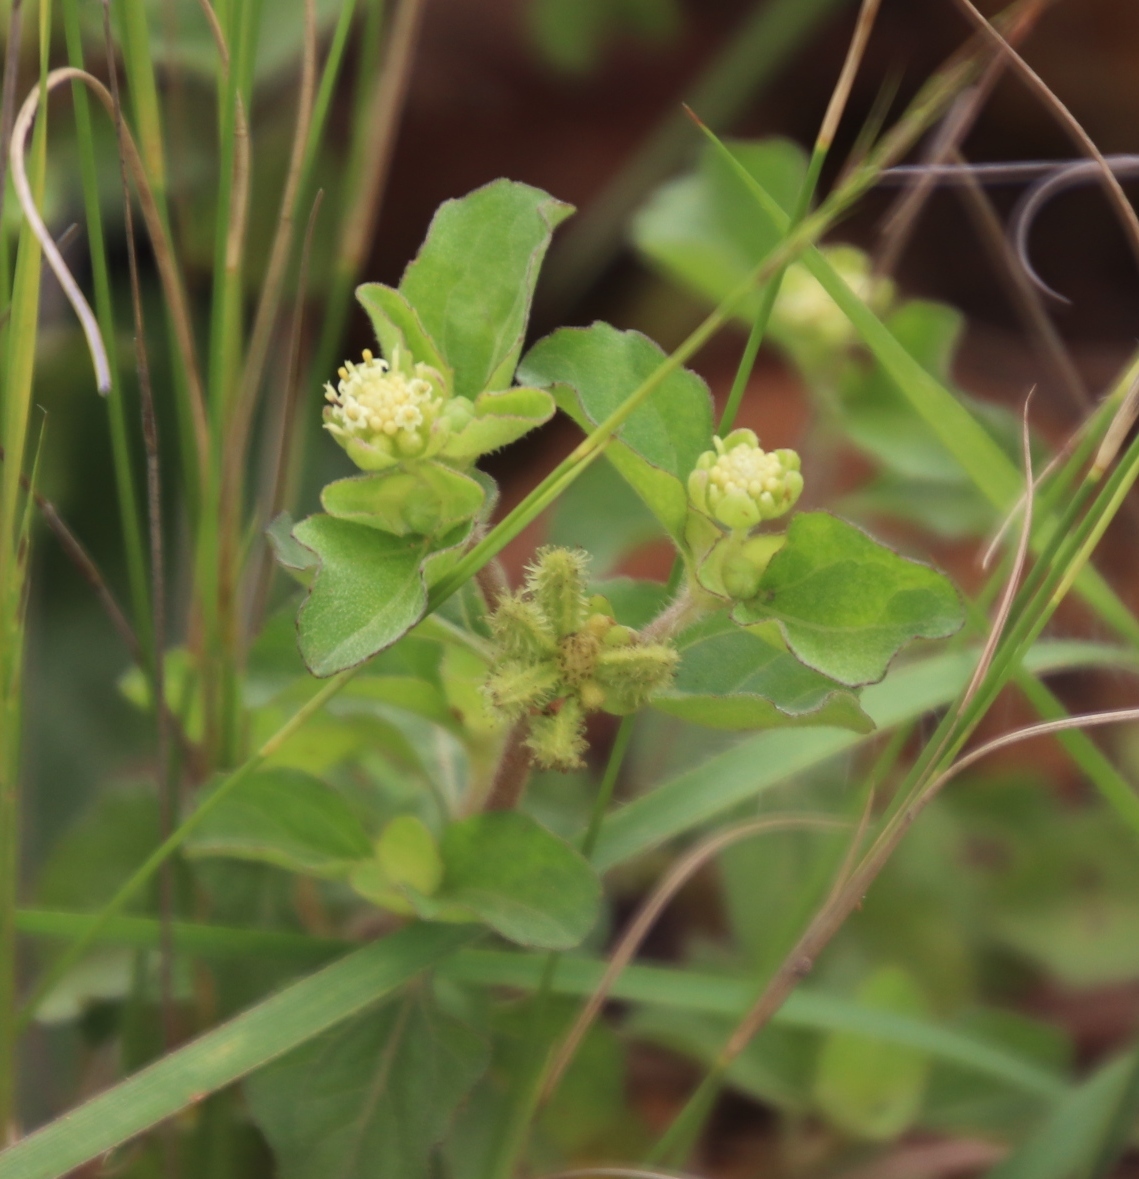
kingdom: Plantae
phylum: Tracheophyta
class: Magnoliopsida
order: Asterales
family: Asteraceae
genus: Acanthospermum
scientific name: Acanthospermum australe
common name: Paraguayan starbur
